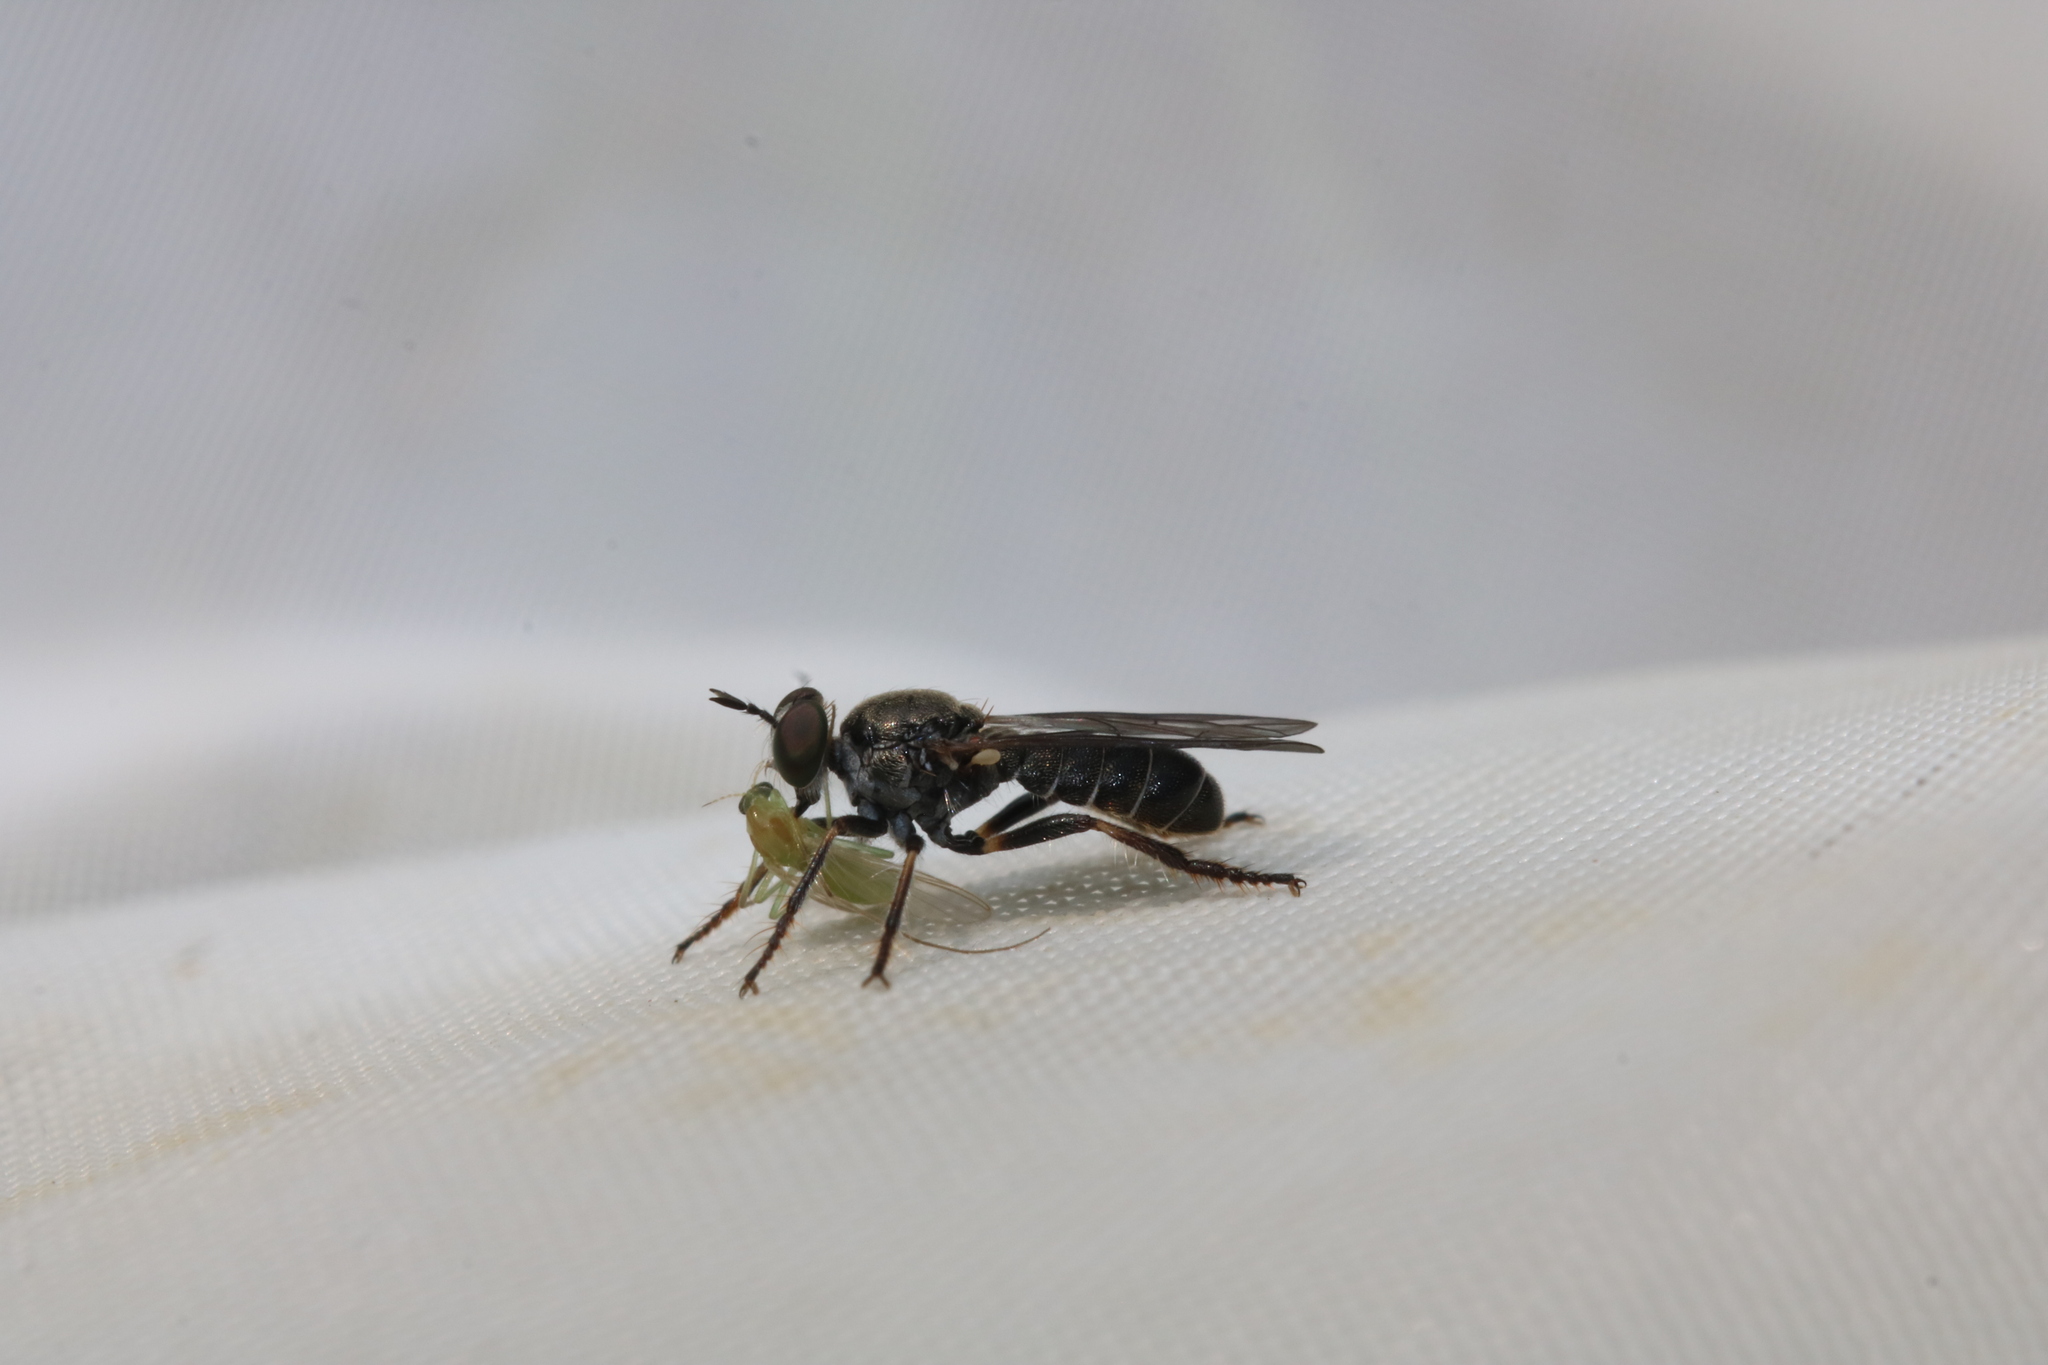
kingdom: Animalia
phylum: Arthropoda
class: Insecta
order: Diptera
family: Asilidae
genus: Atomosia
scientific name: Atomosia puella
